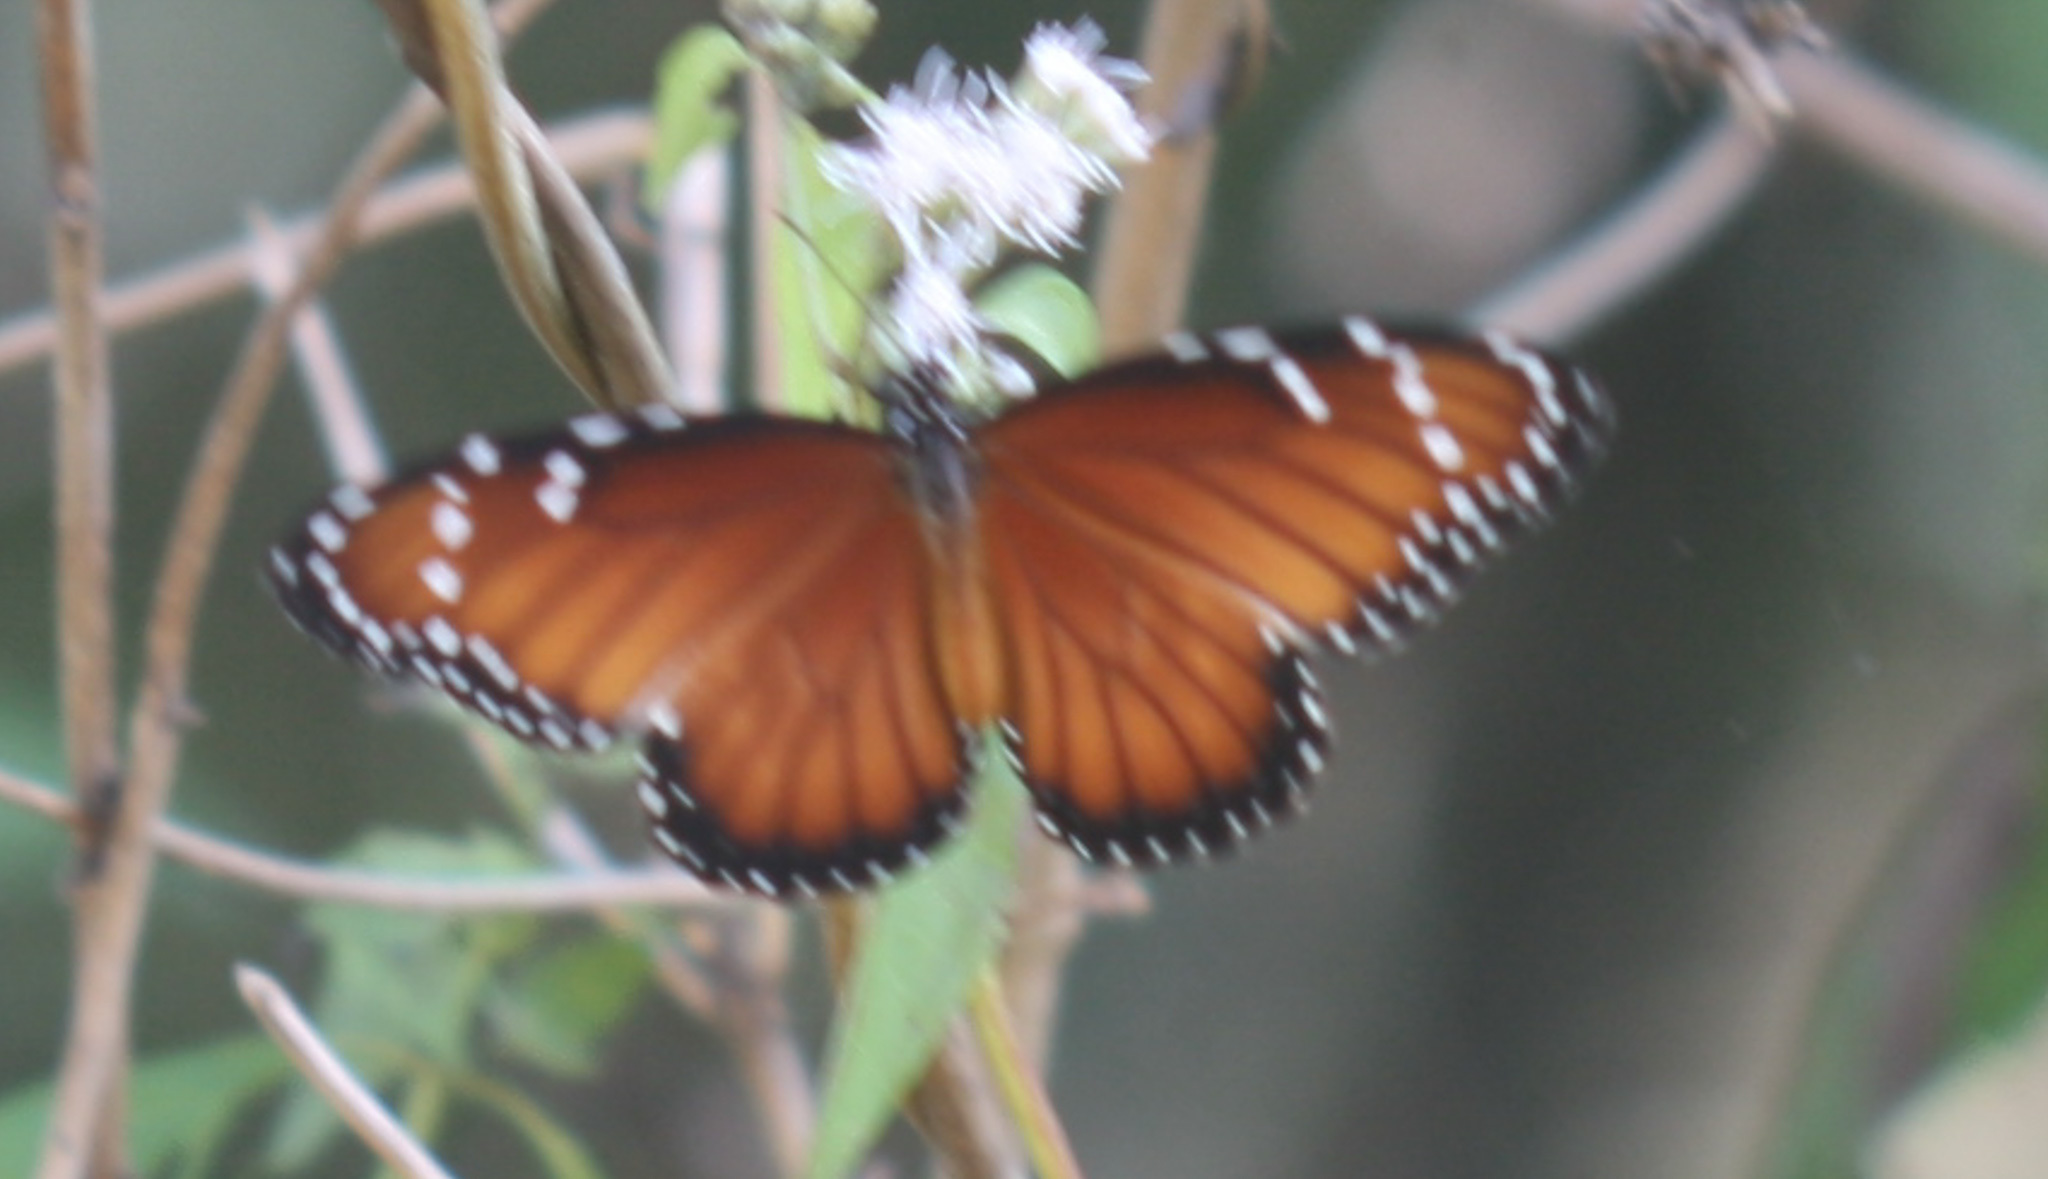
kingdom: Animalia
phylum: Arthropoda
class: Insecta
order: Lepidoptera
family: Nymphalidae
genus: Danaus
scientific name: Danaus eresimus
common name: Soldier
